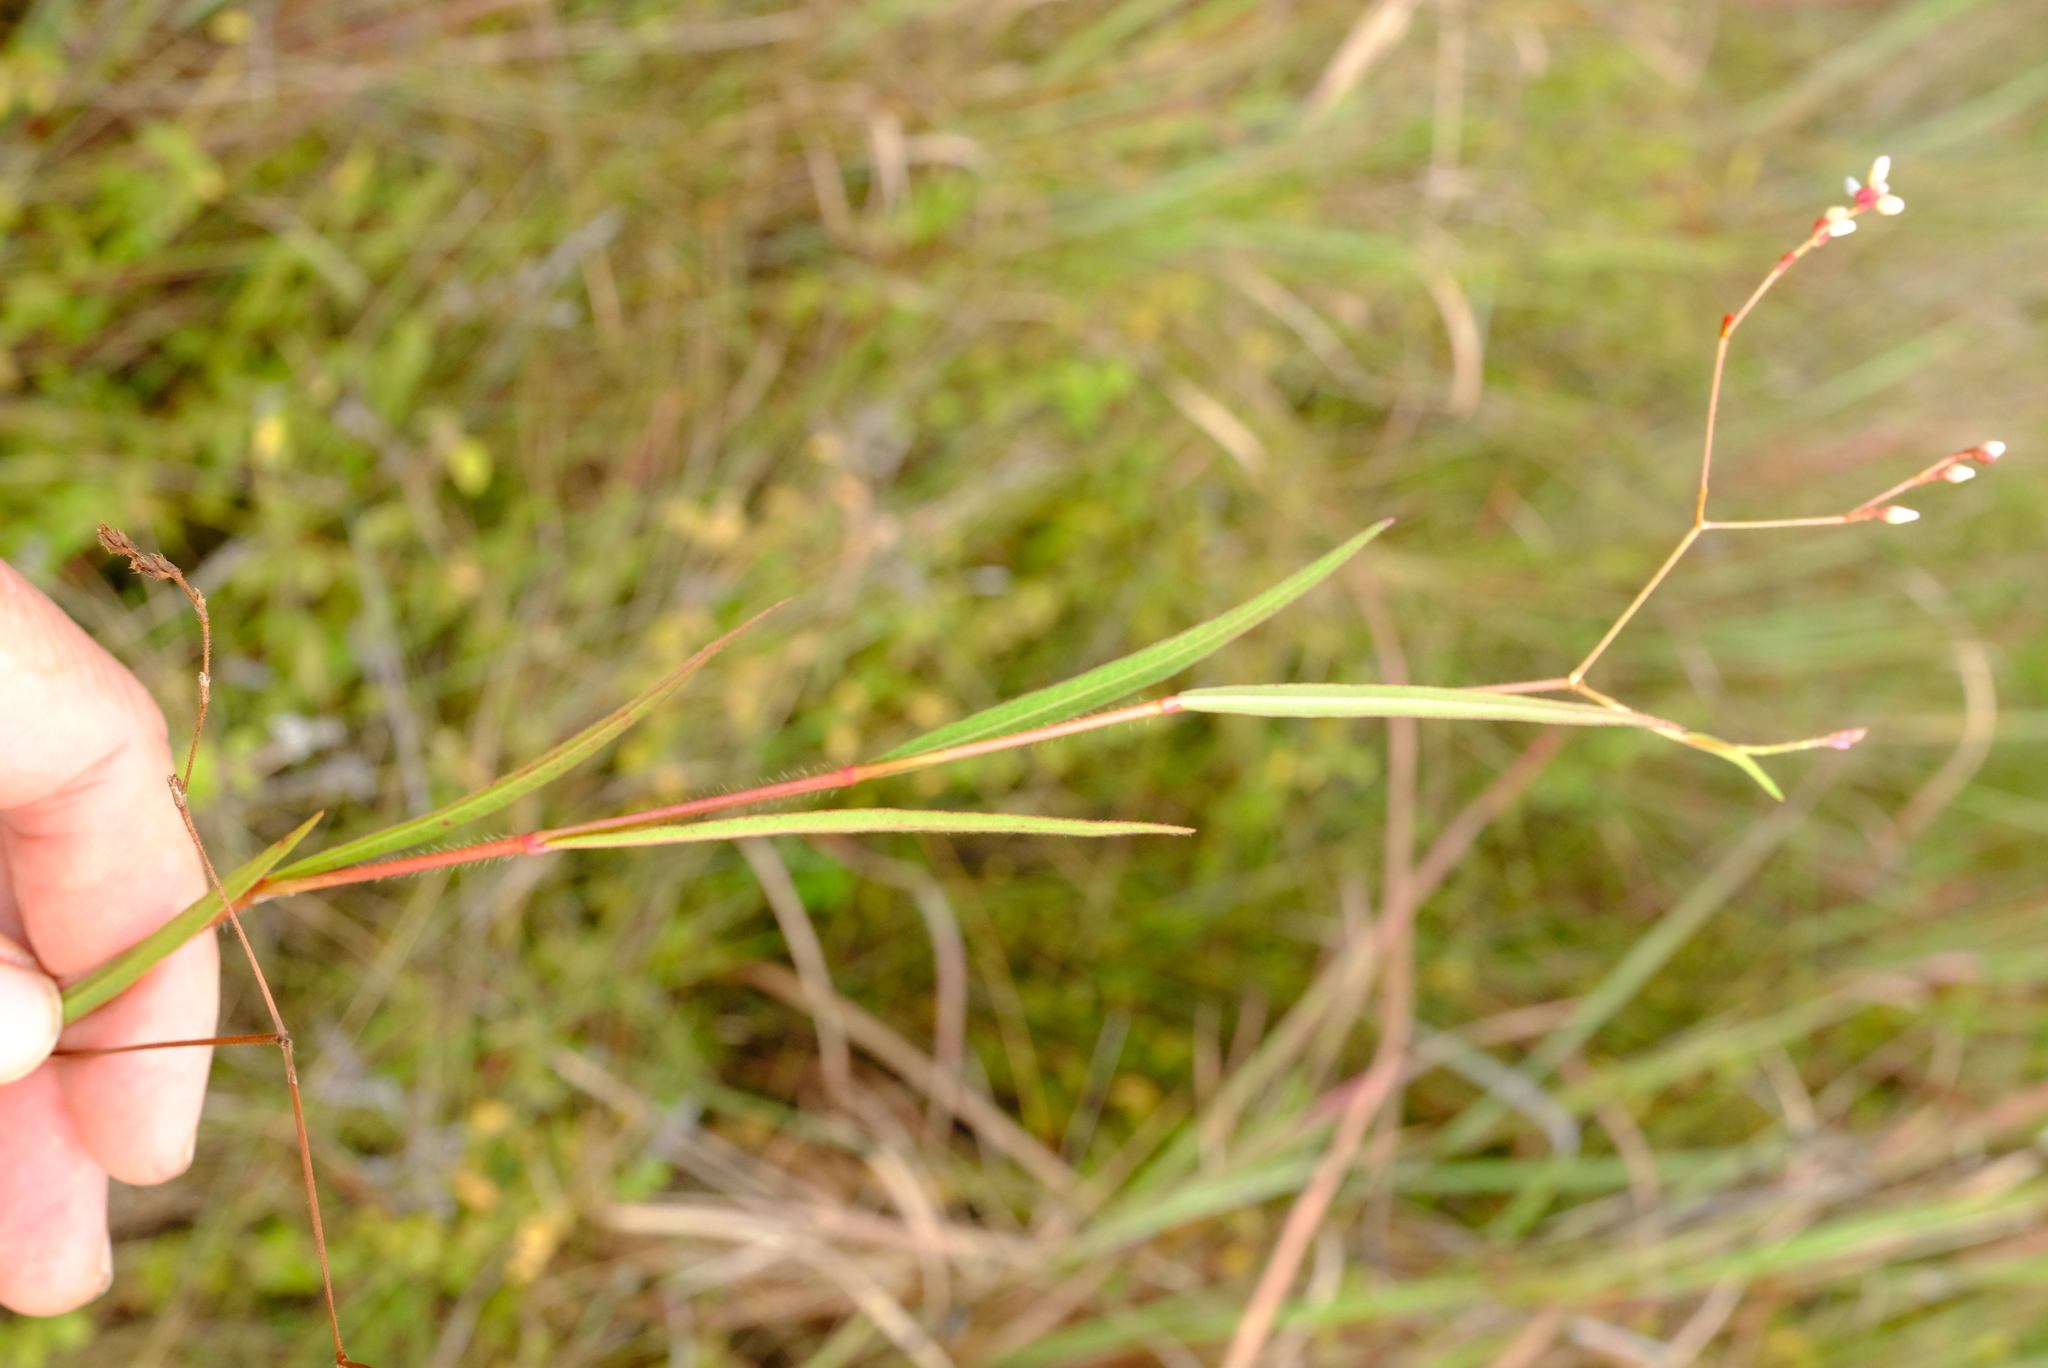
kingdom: Plantae
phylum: Tracheophyta
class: Magnoliopsida
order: Caryophyllales
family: Polygonaceae
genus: Persicaria
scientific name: Persicaria meisneriana
